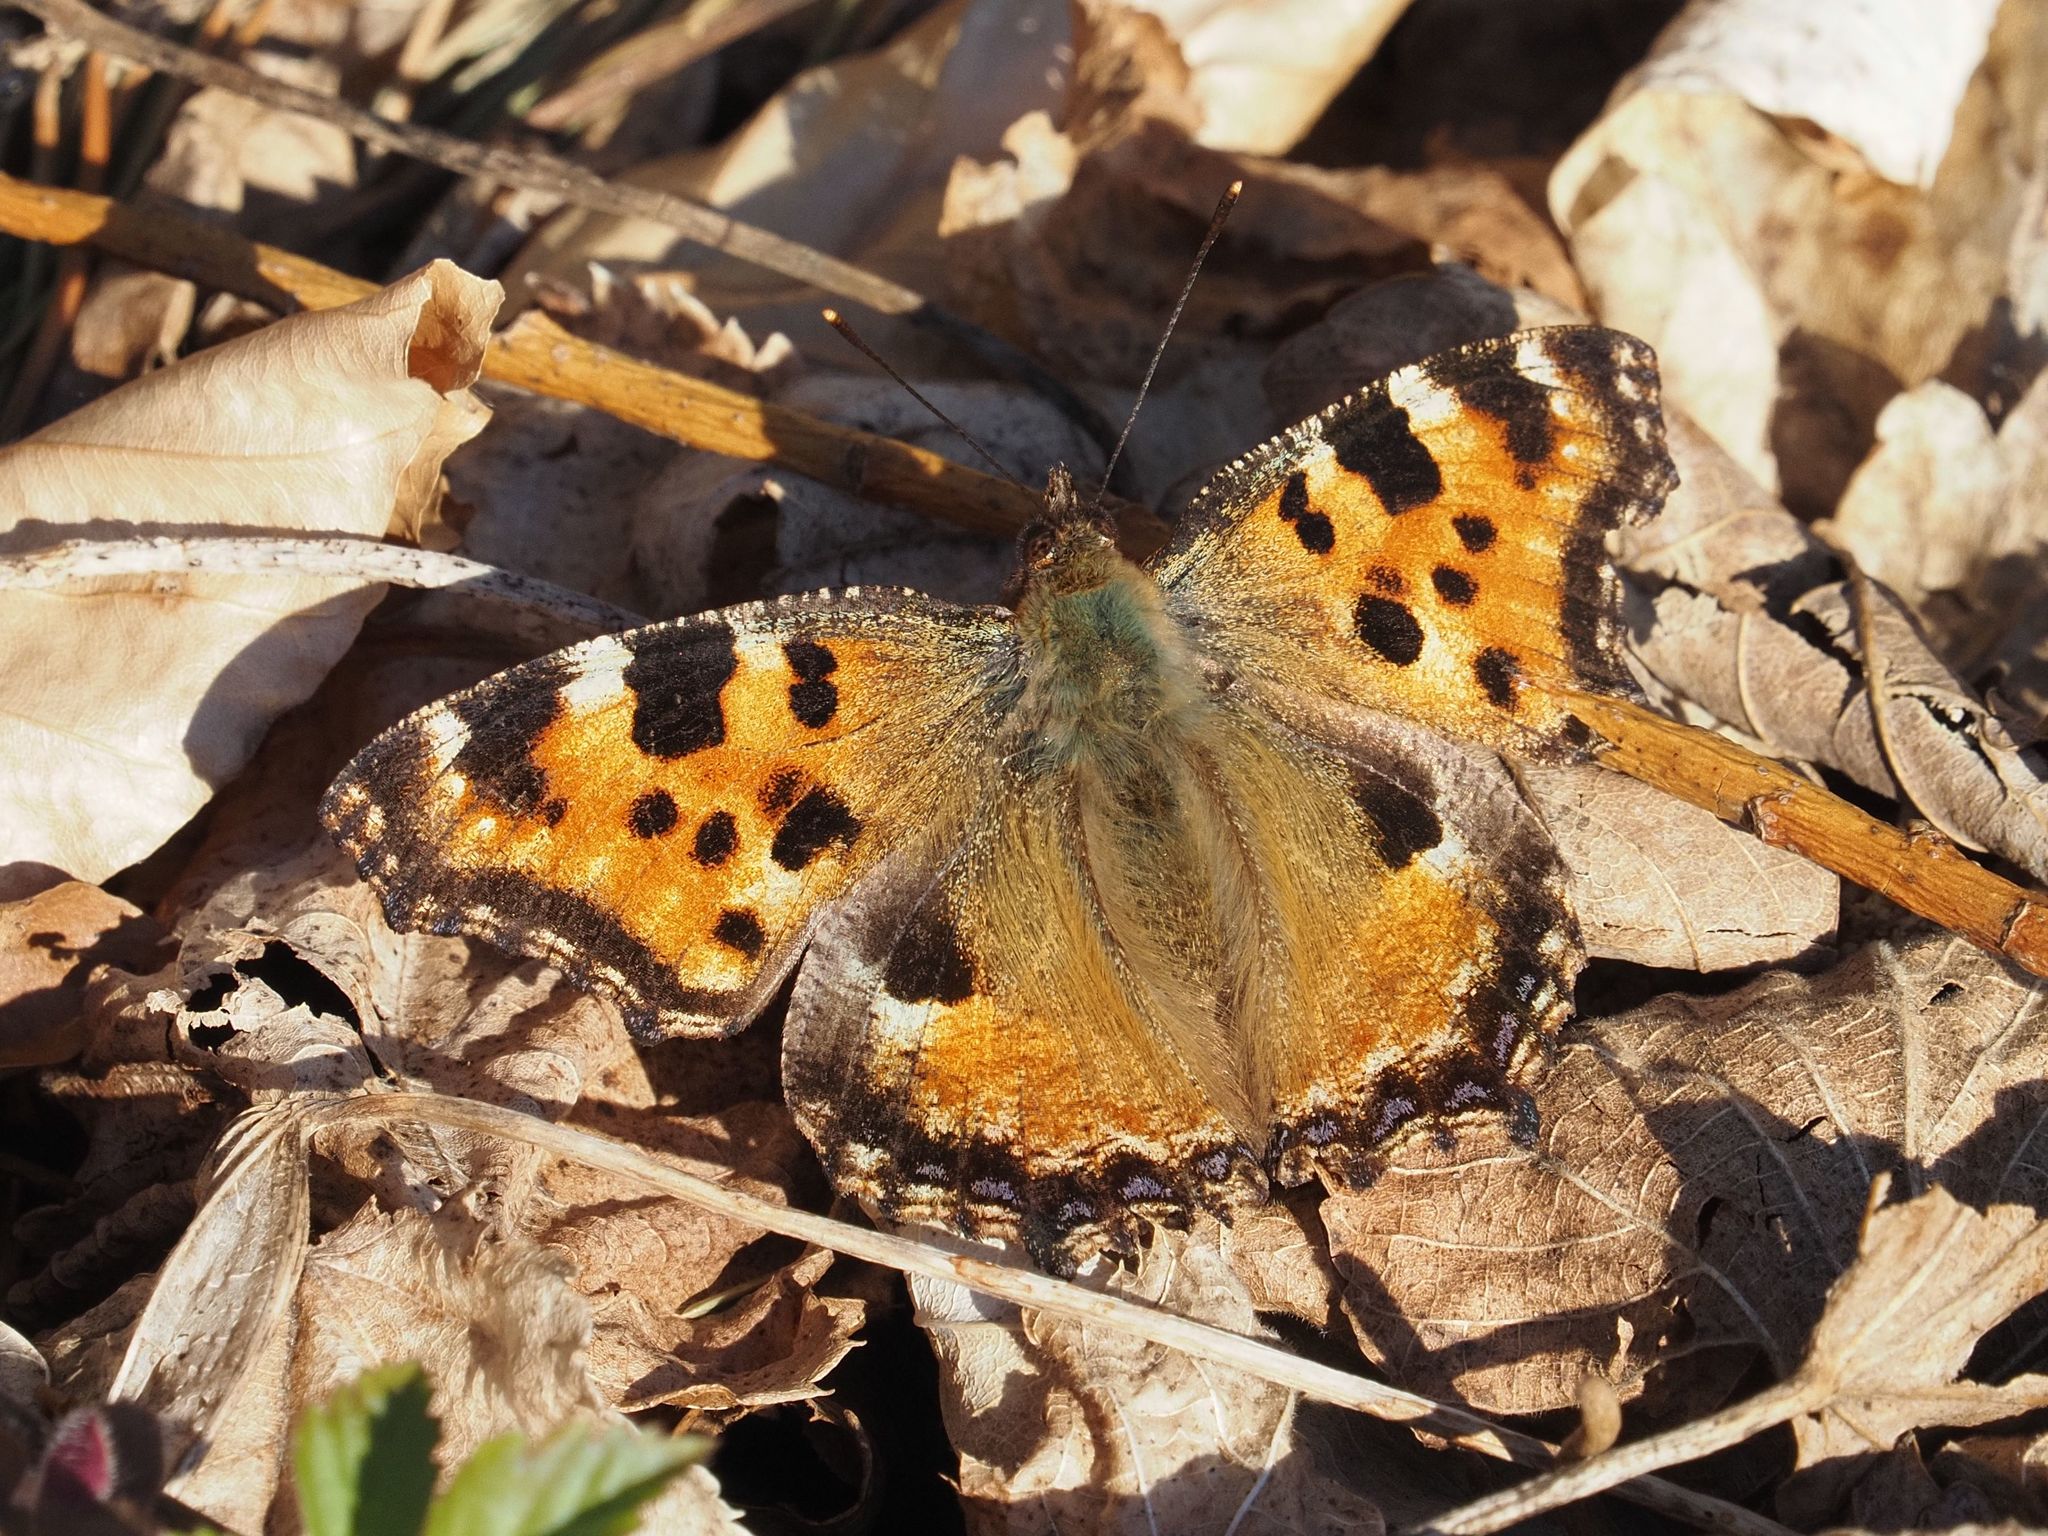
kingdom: Animalia
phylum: Arthropoda
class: Insecta
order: Lepidoptera
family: Nymphalidae
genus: Nymphalis
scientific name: Nymphalis polychloros
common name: Large tortoiseshell
